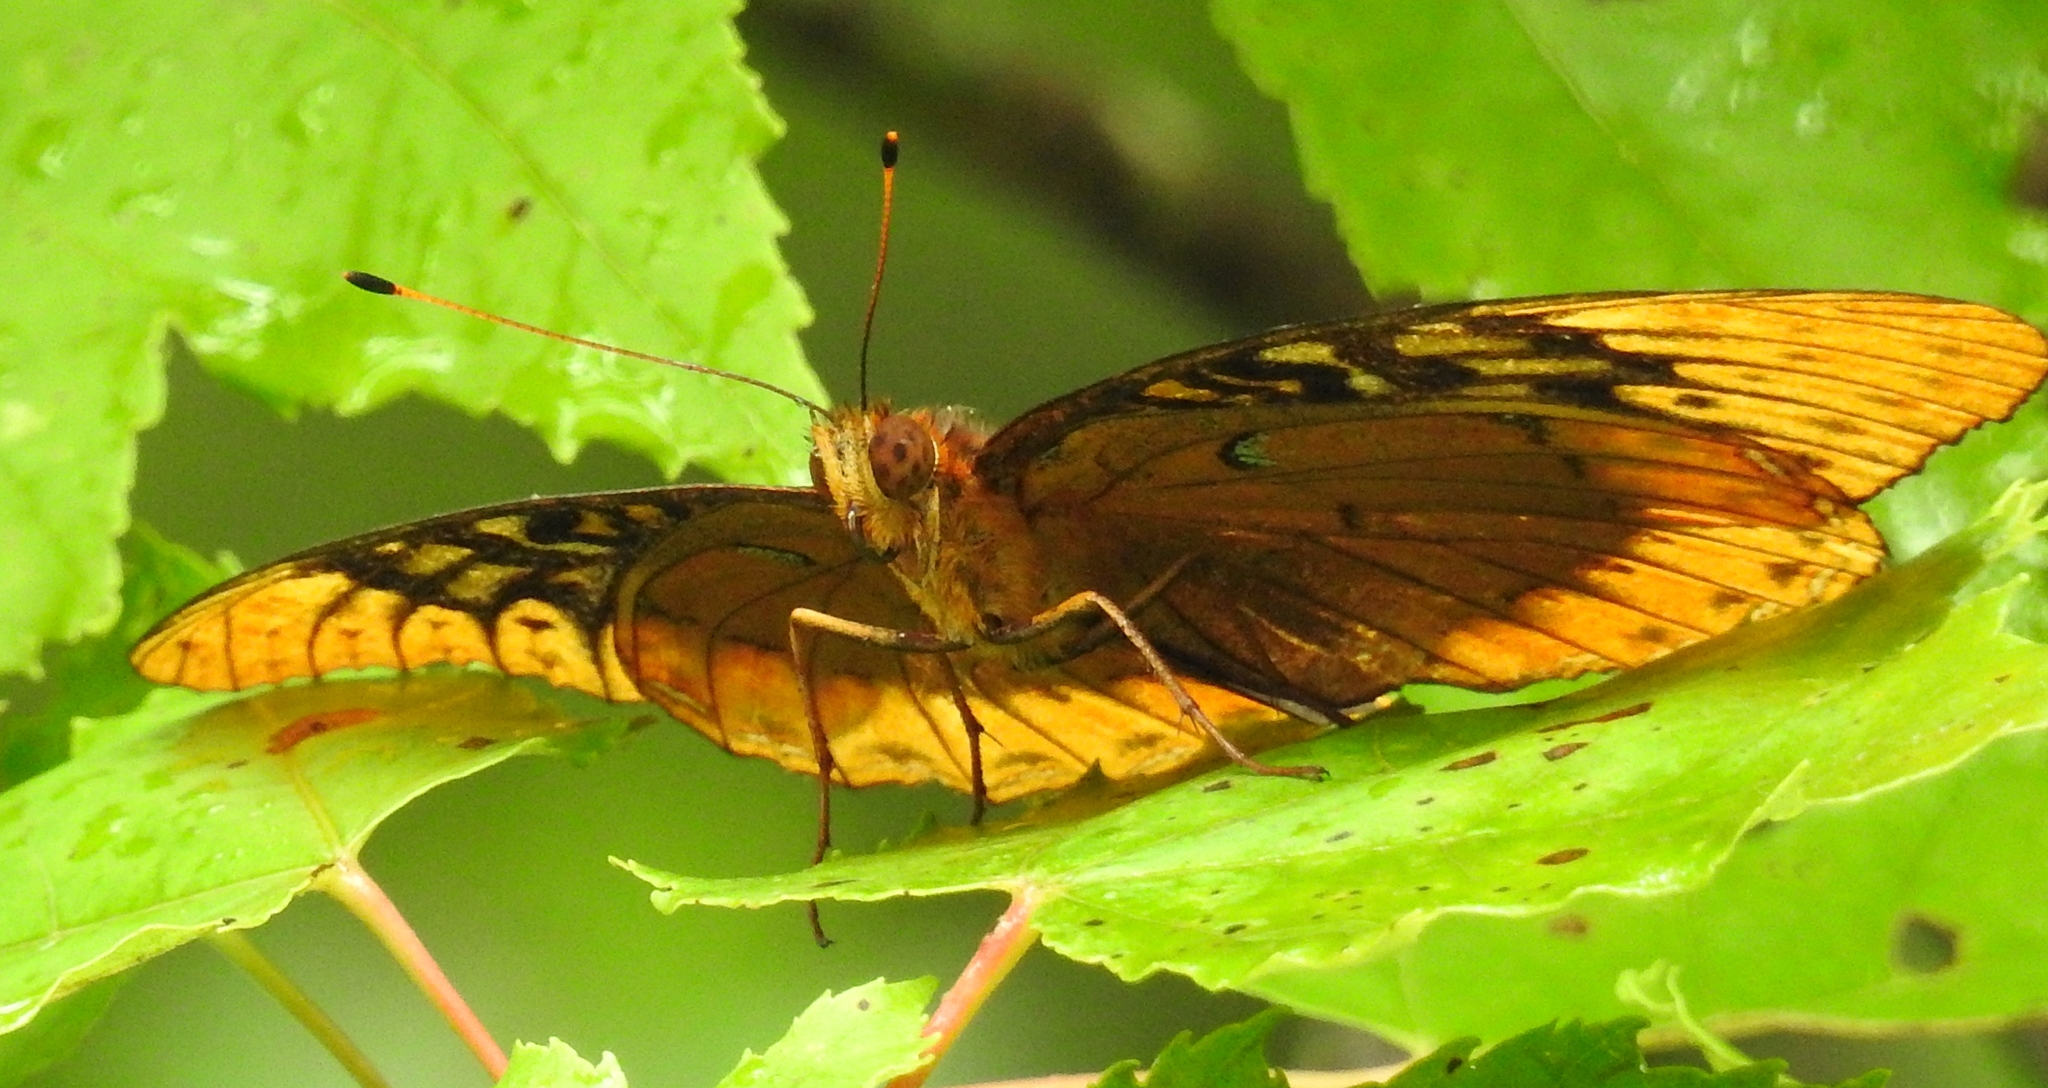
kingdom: Animalia
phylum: Arthropoda
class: Insecta
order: Lepidoptera
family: Nymphalidae
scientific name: Nymphalidae
